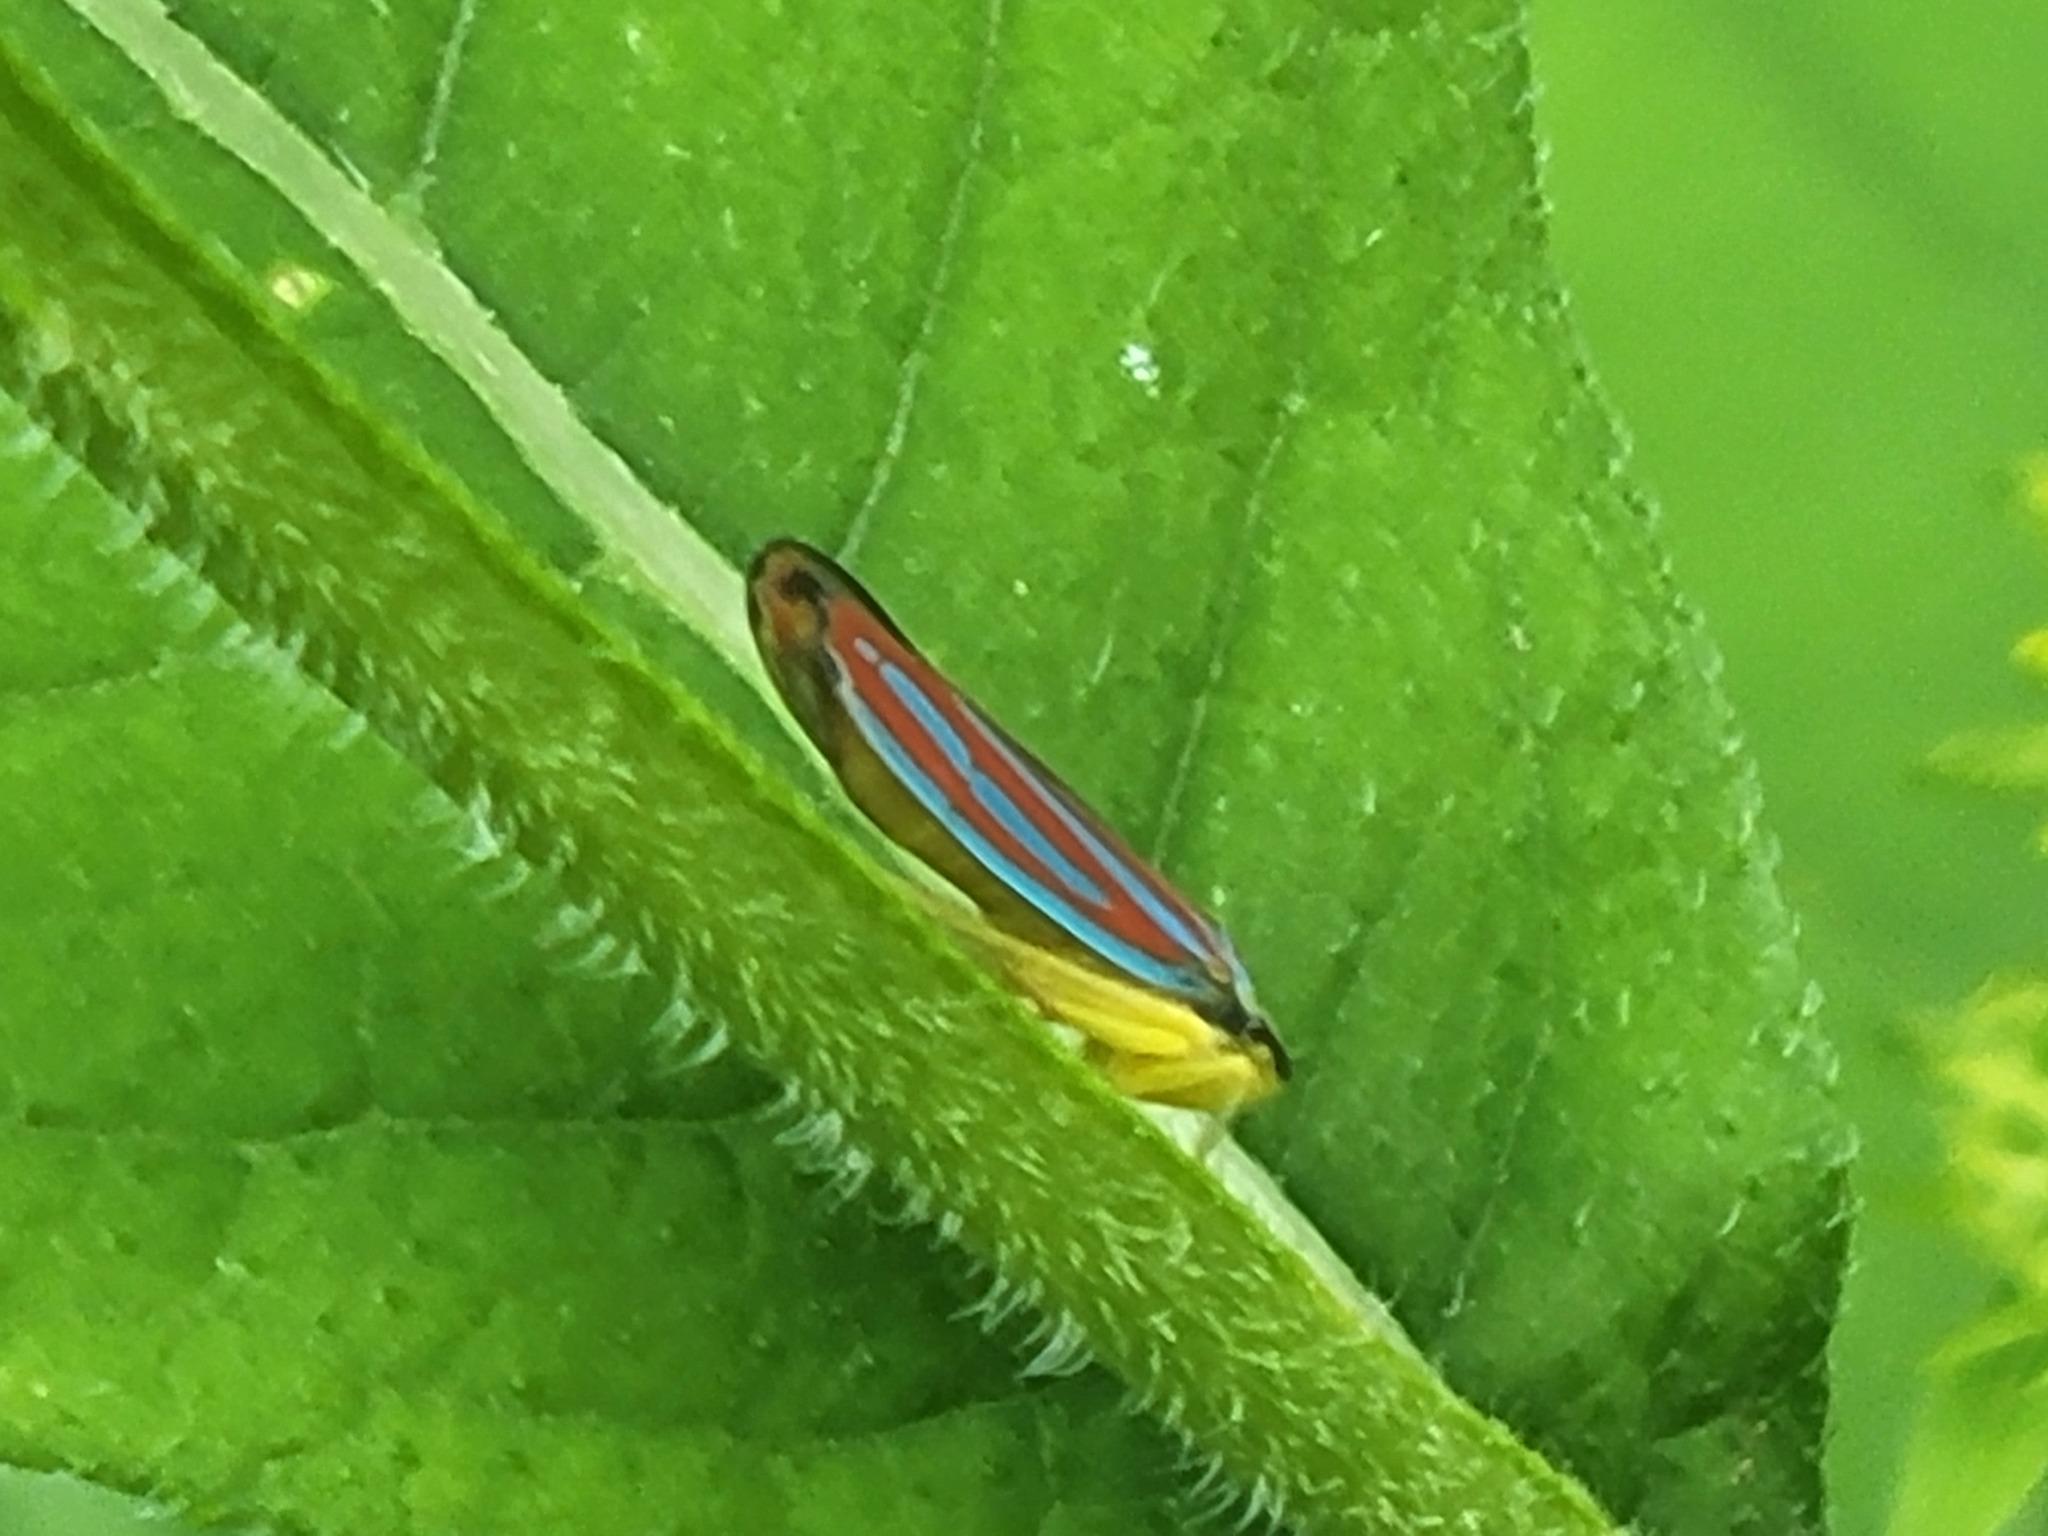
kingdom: Animalia
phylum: Arthropoda
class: Insecta
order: Hemiptera
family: Cicadellidae
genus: Graphocephala
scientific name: Graphocephala coccinea
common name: Candy-striped leafhopper
